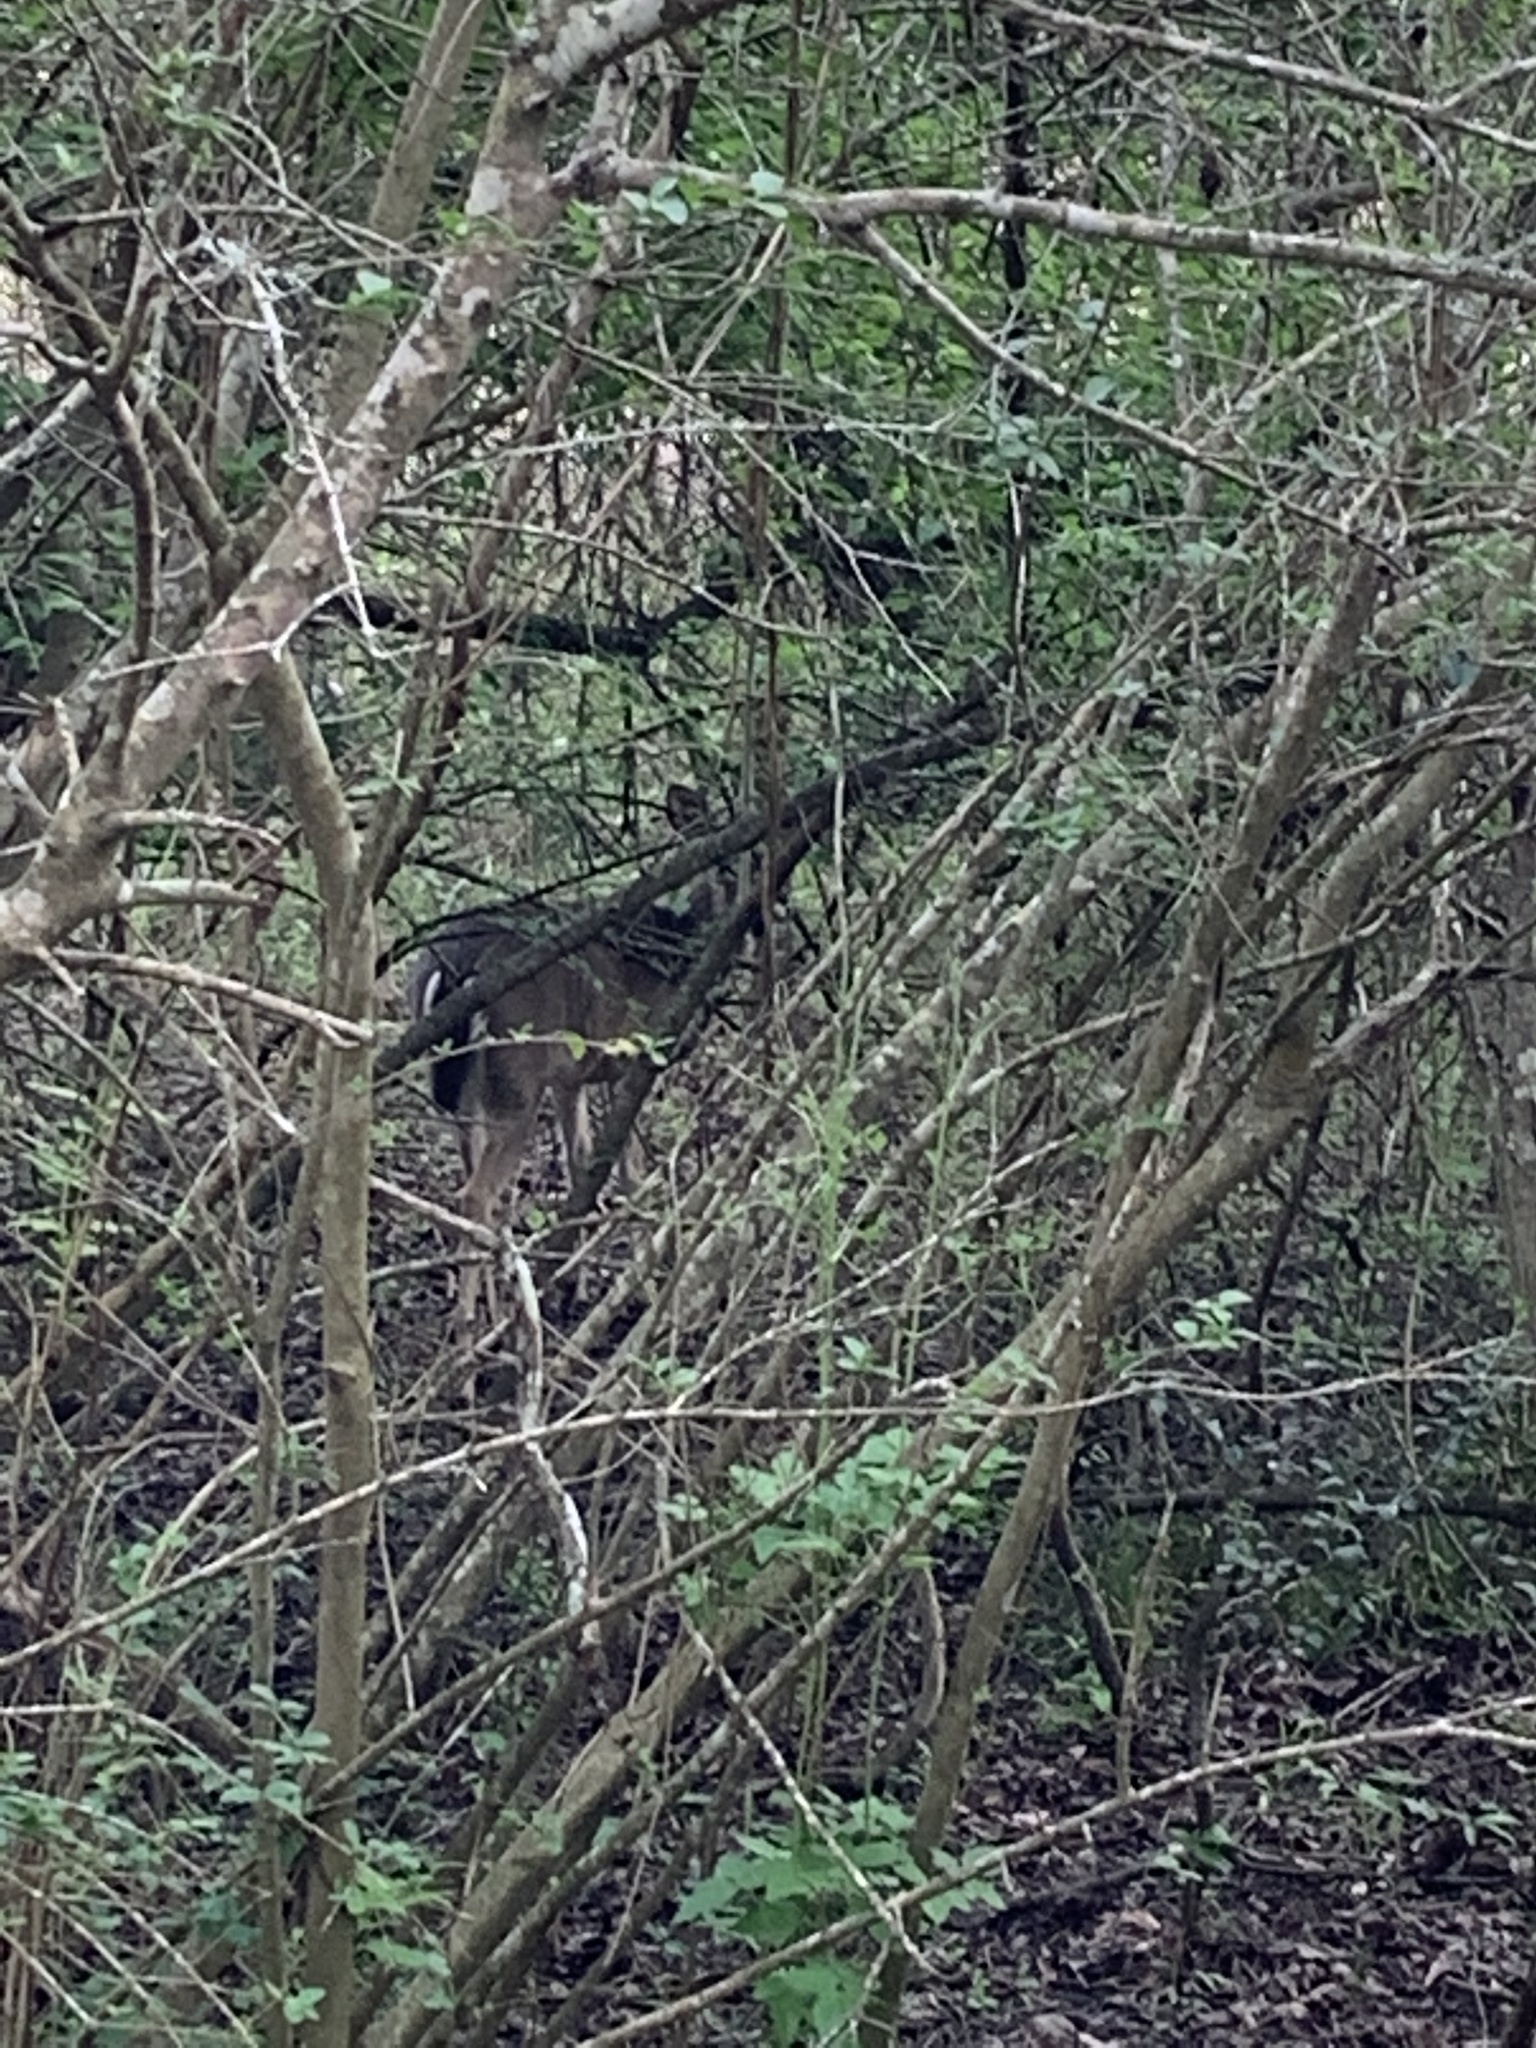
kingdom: Animalia
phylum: Chordata
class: Mammalia
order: Artiodactyla
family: Cervidae
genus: Odocoileus
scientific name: Odocoileus virginianus
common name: White-tailed deer
